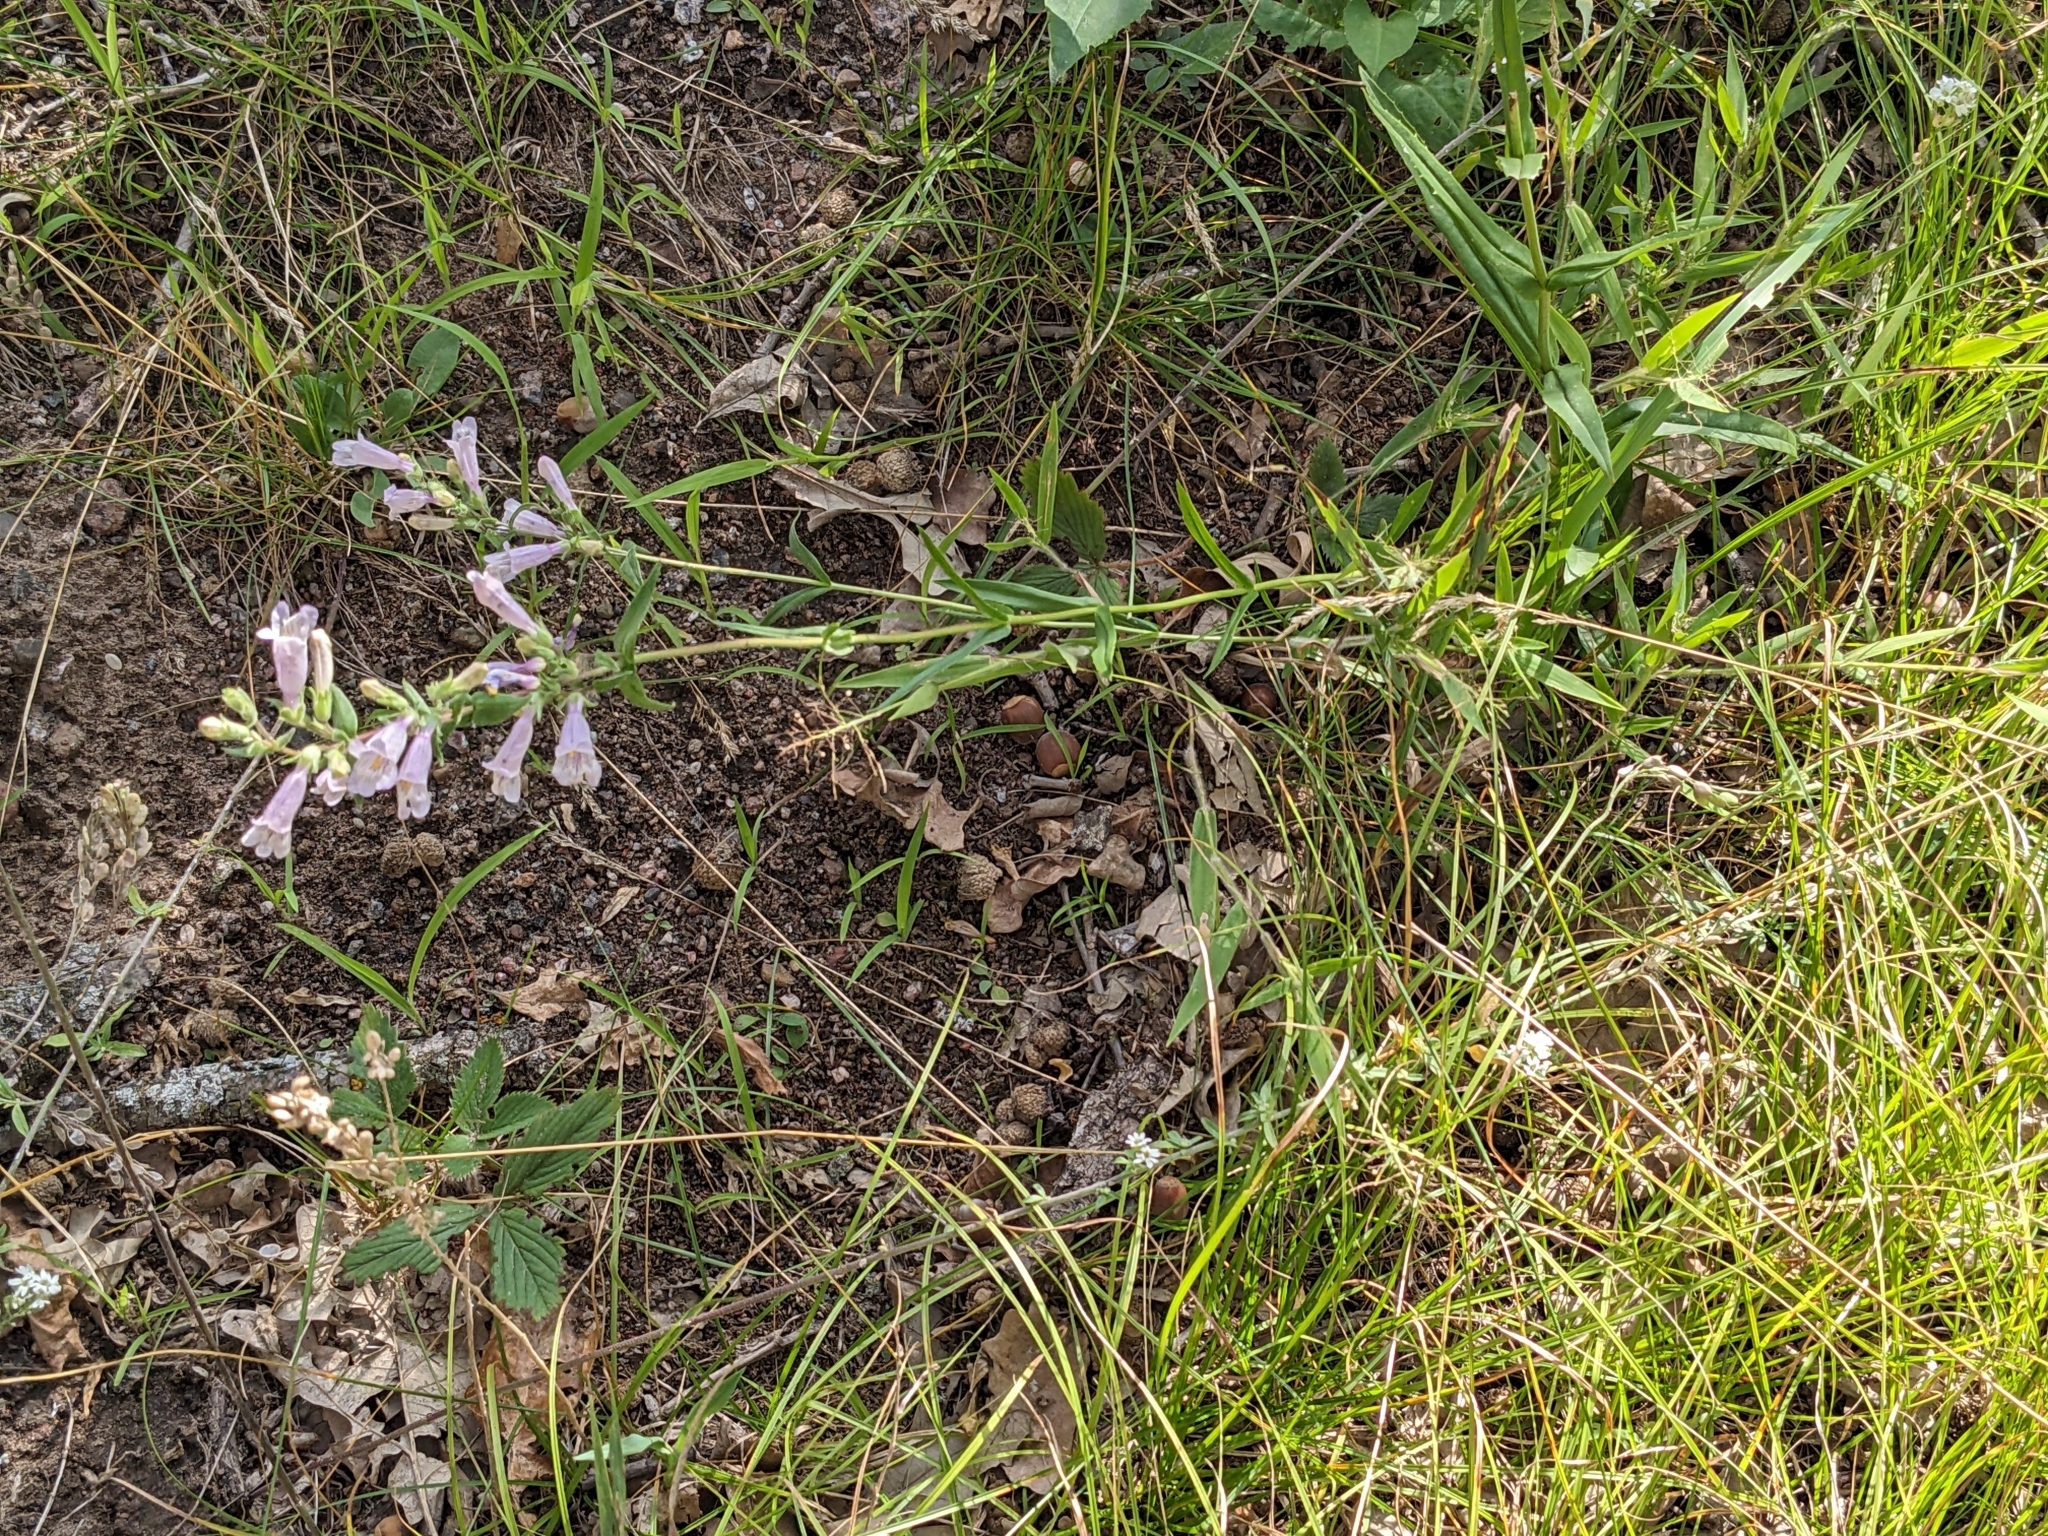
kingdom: Plantae
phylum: Tracheophyta
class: Magnoliopsida
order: Lamiales
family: Plantaginaceae
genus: Penstemon
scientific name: Penstemon gracilis
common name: Slender beardtongue
